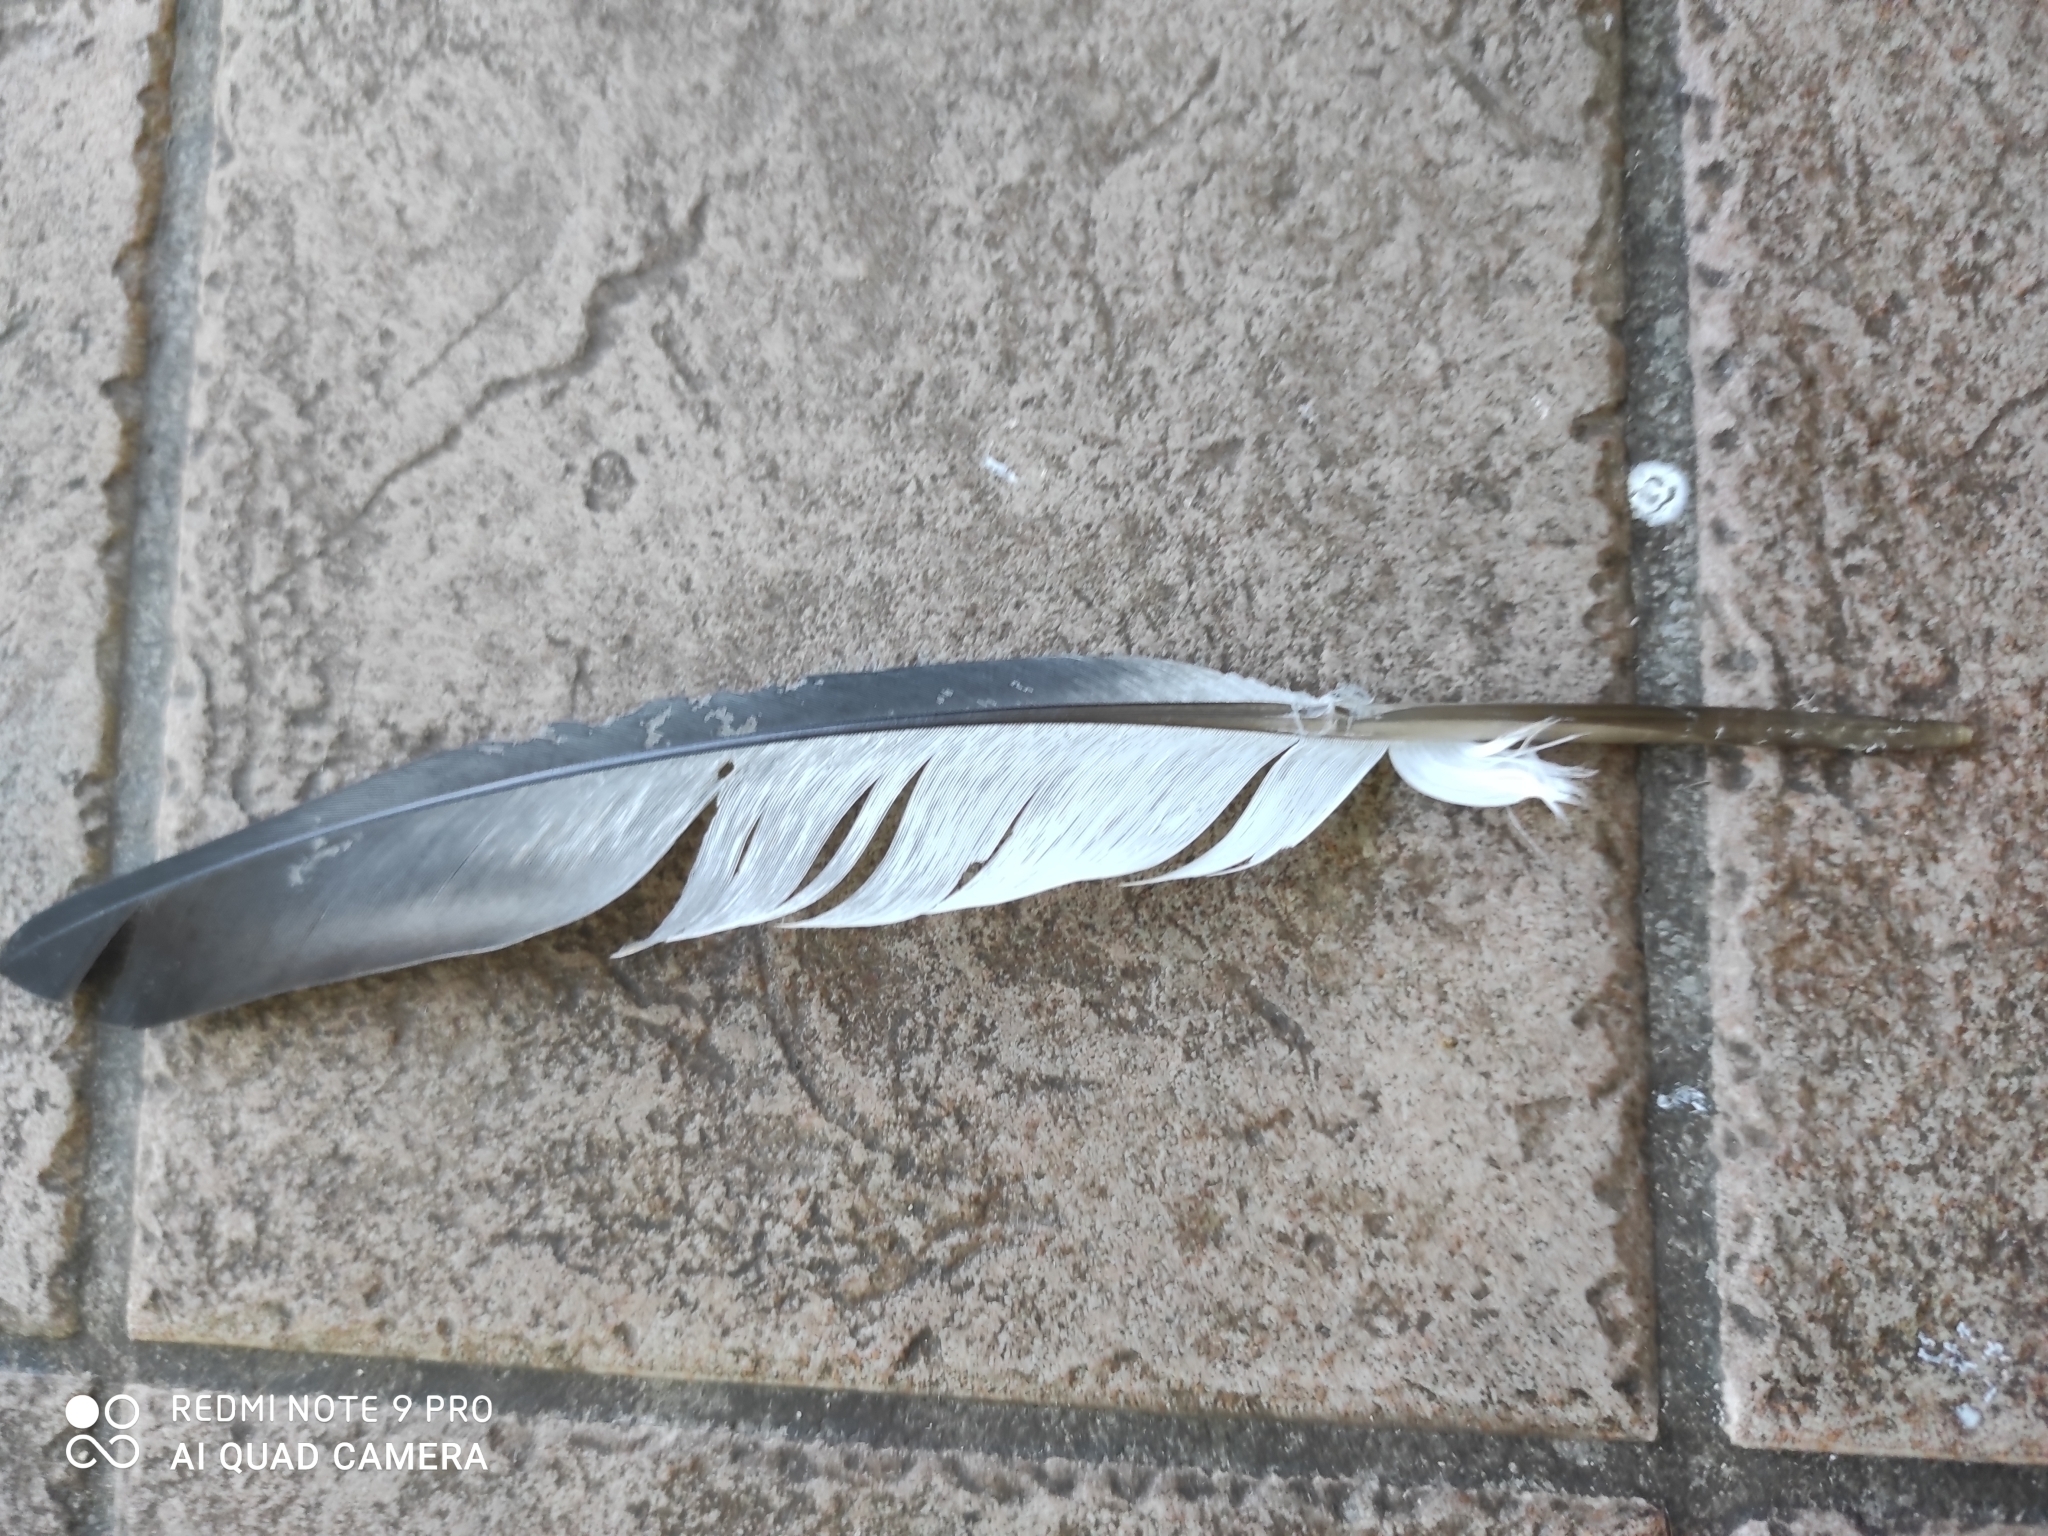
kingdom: Animalia
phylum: Chordata
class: Aves
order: Columbiformes
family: Columbidae
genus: Columba
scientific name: Columba livia
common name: Rock pigeon
